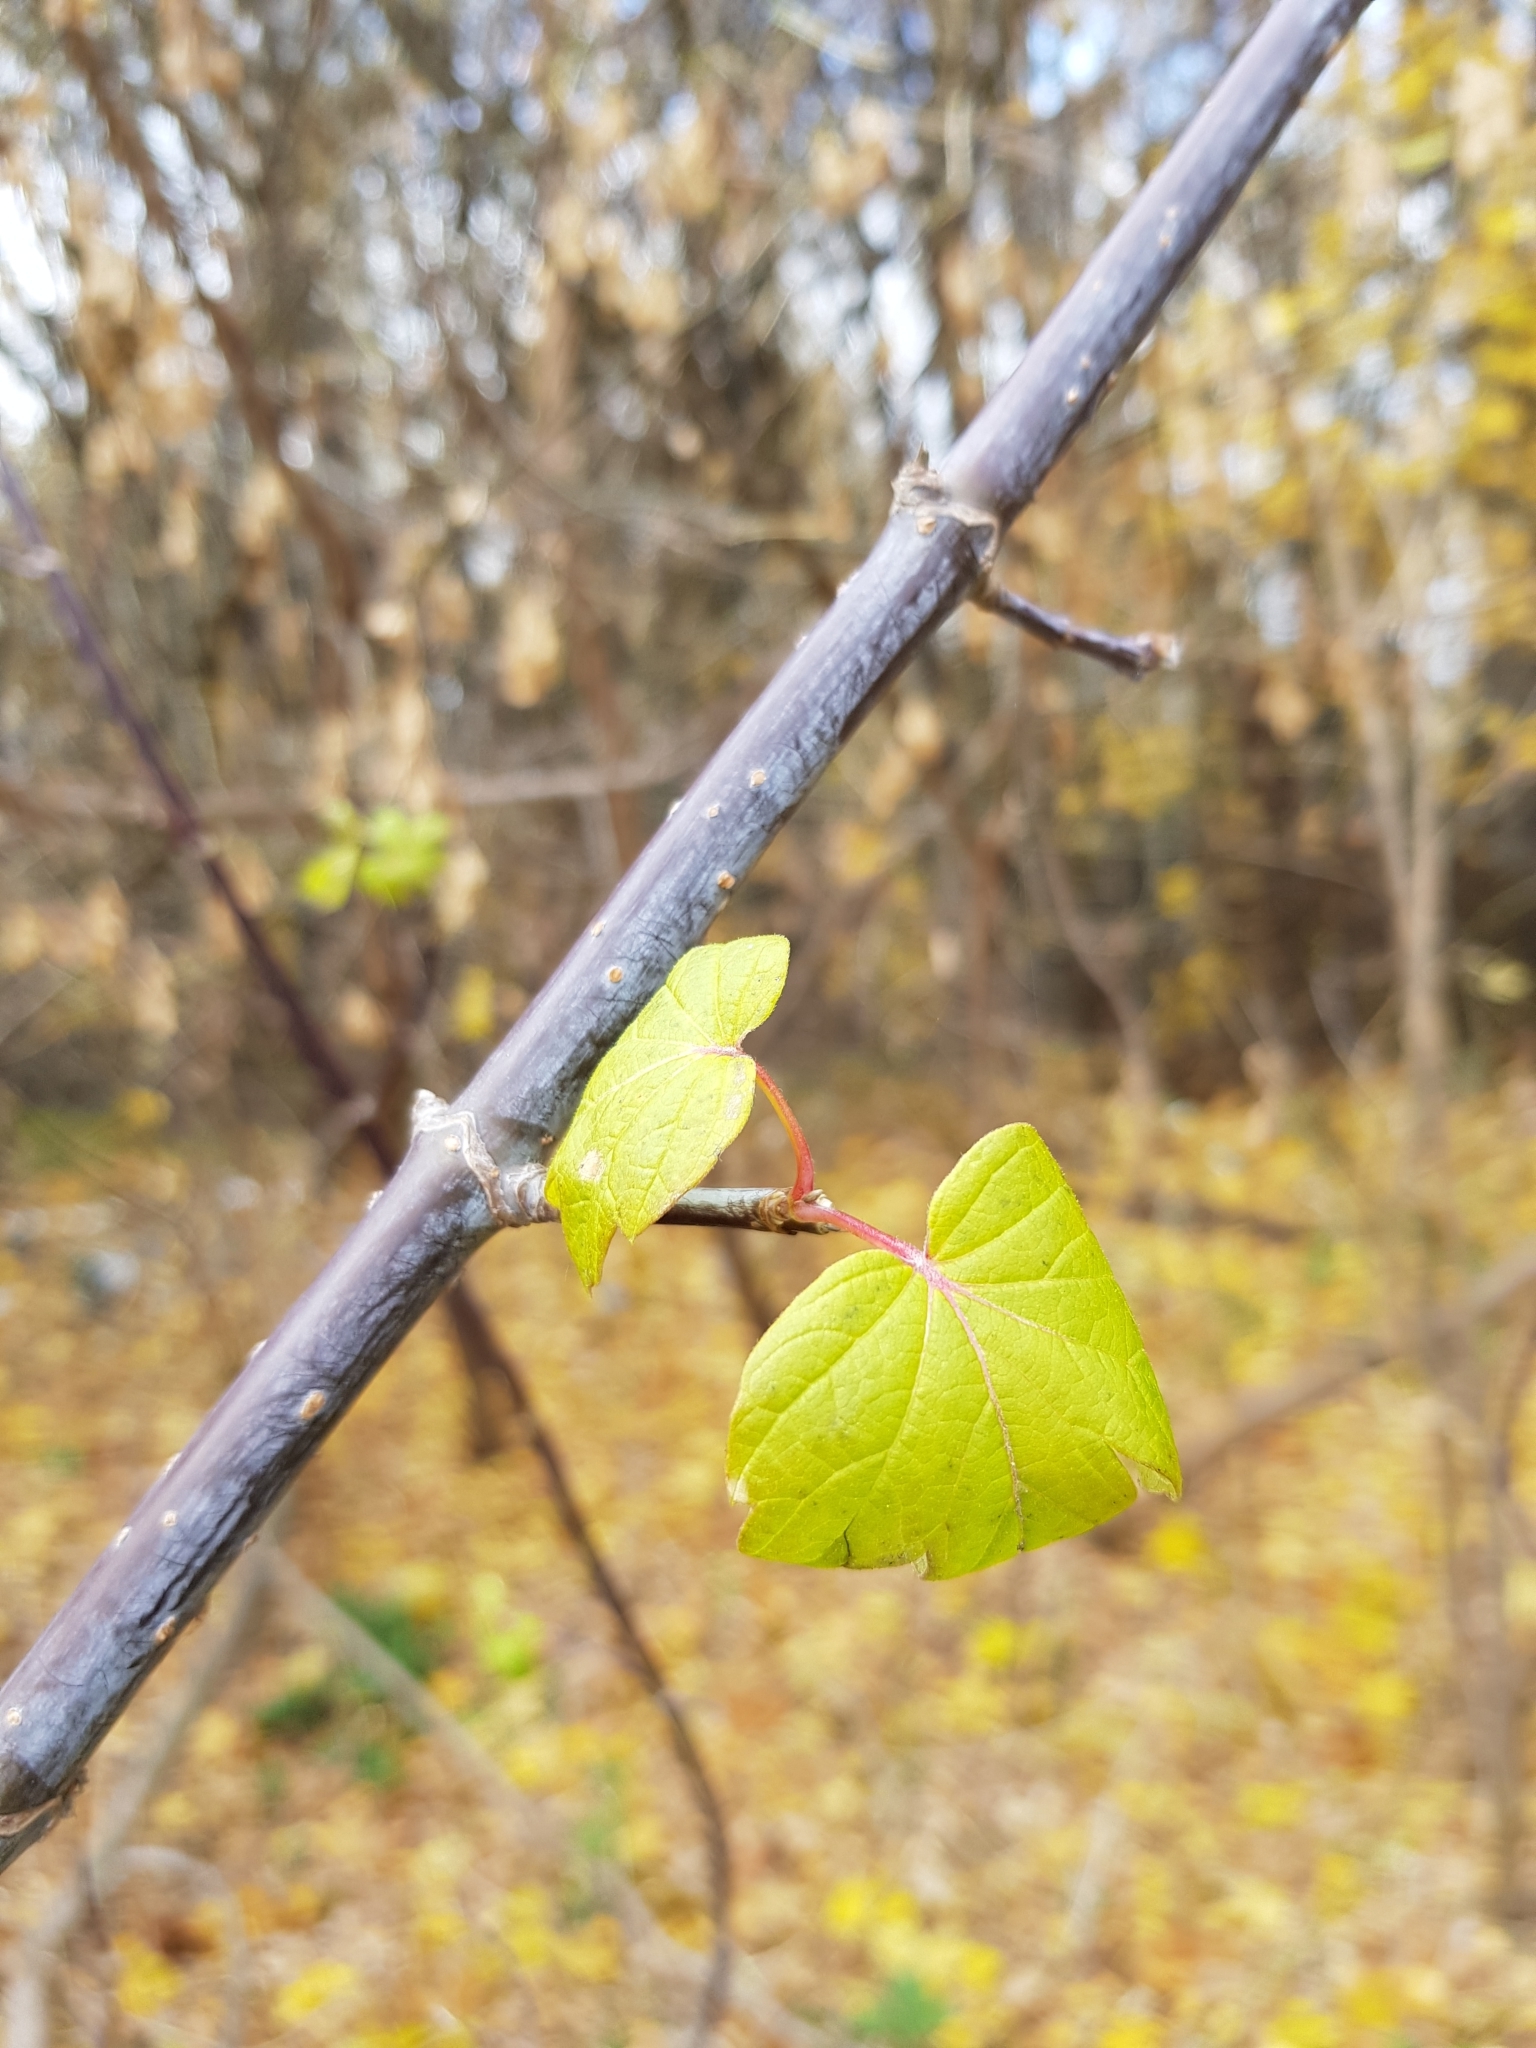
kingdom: Plantae
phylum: Tracheophyta
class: Magnoliopsida
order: Sapindales
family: Sapindaceae
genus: Acer
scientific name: Acer negundo
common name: Ashleaf maple
